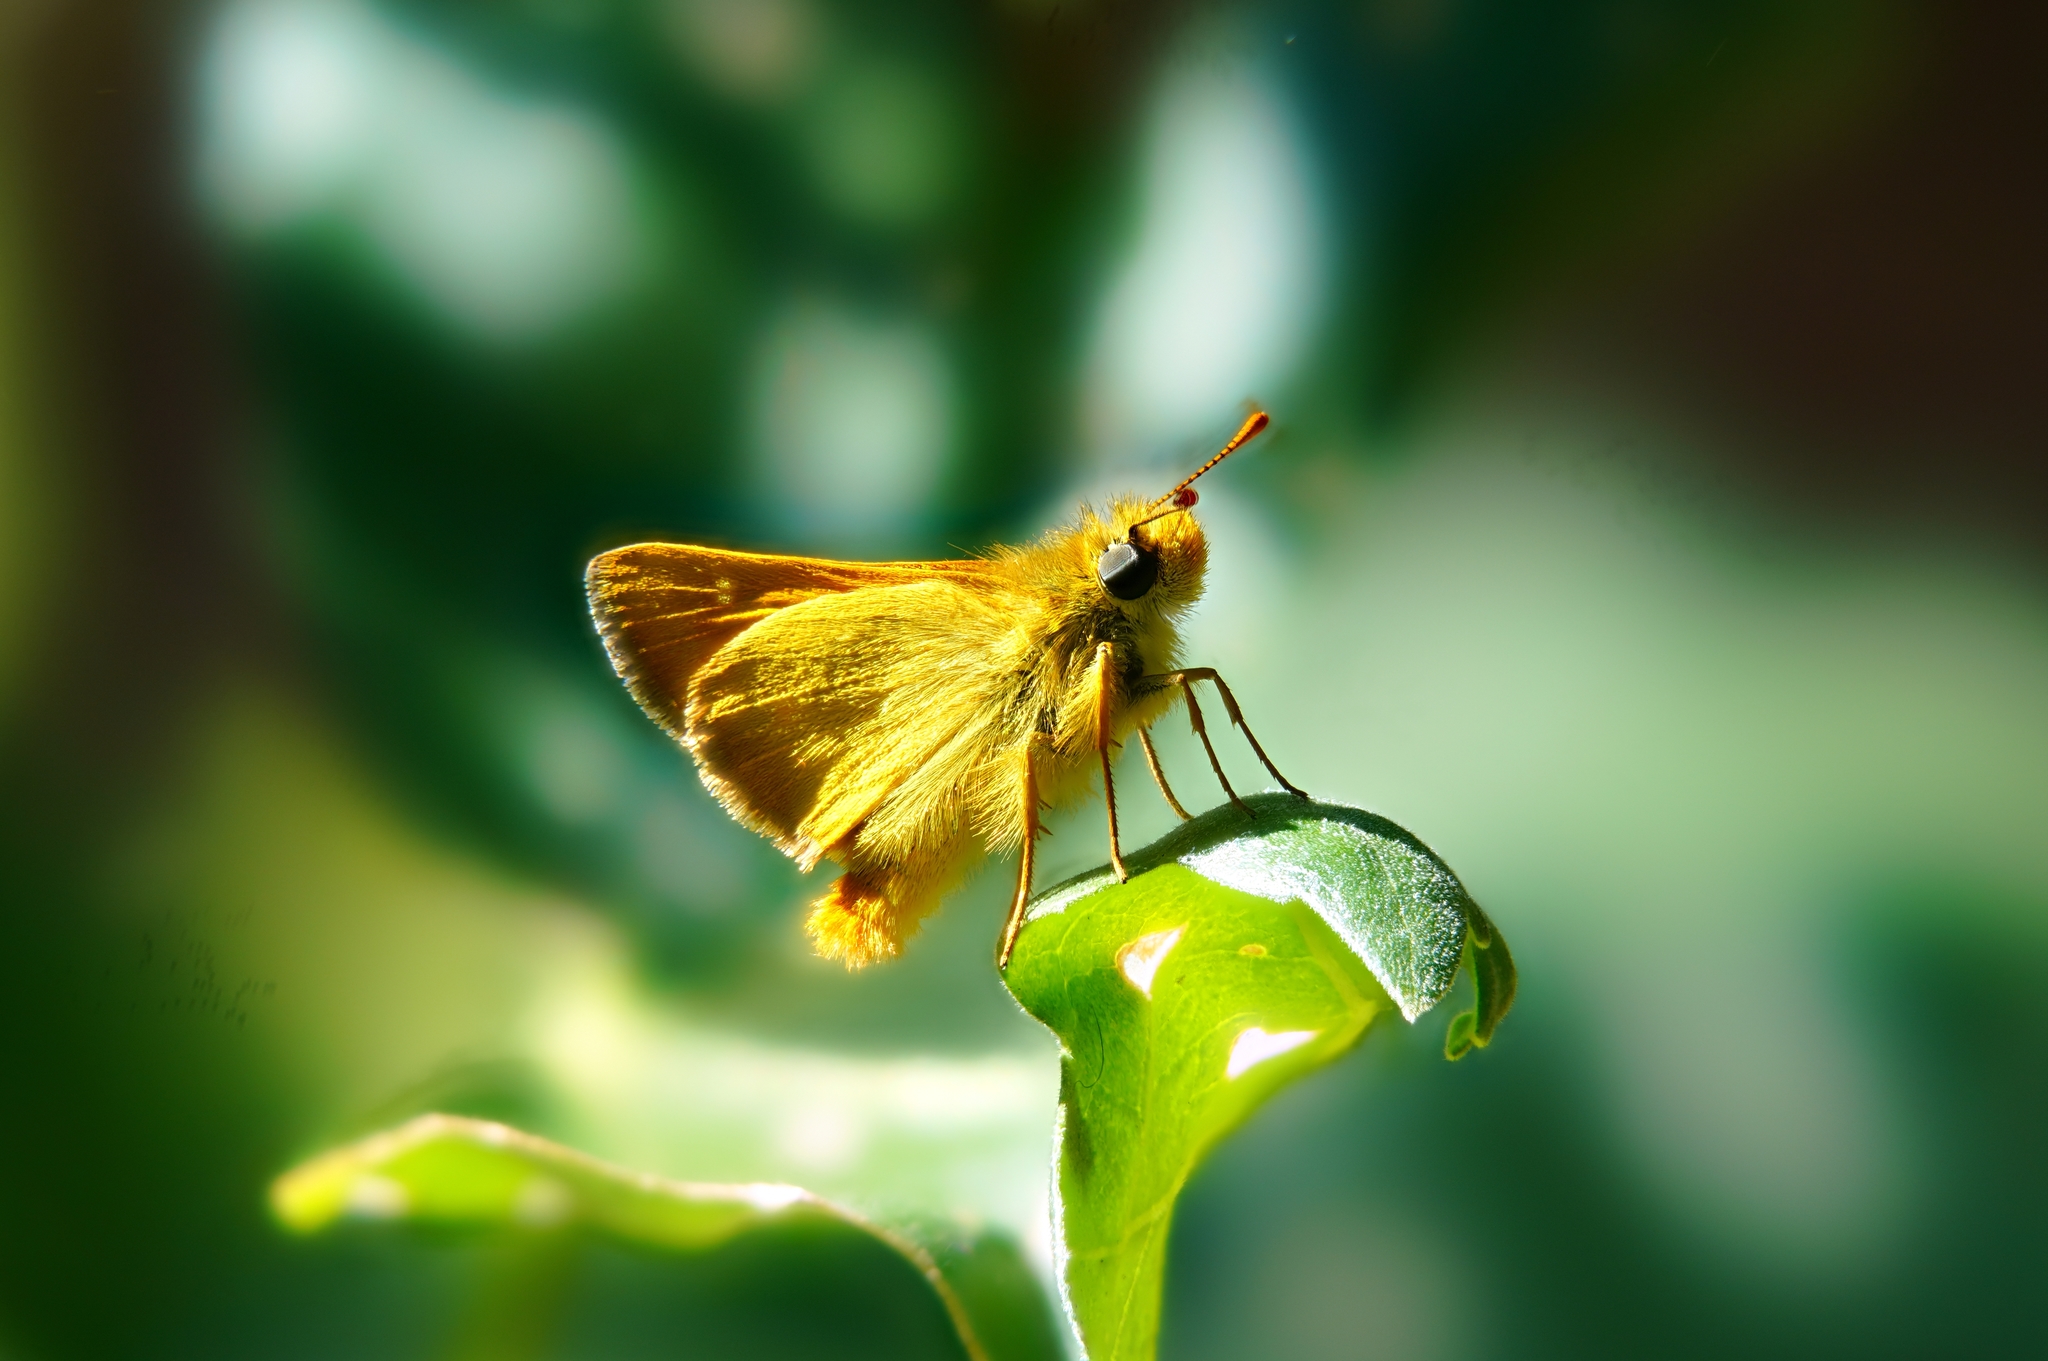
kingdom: Animalia
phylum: Arthropoda
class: Insecta
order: Lepidoptera
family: Hesperiidae
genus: Ochlodes
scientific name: Ochlodes agricola
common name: Rural skipper
